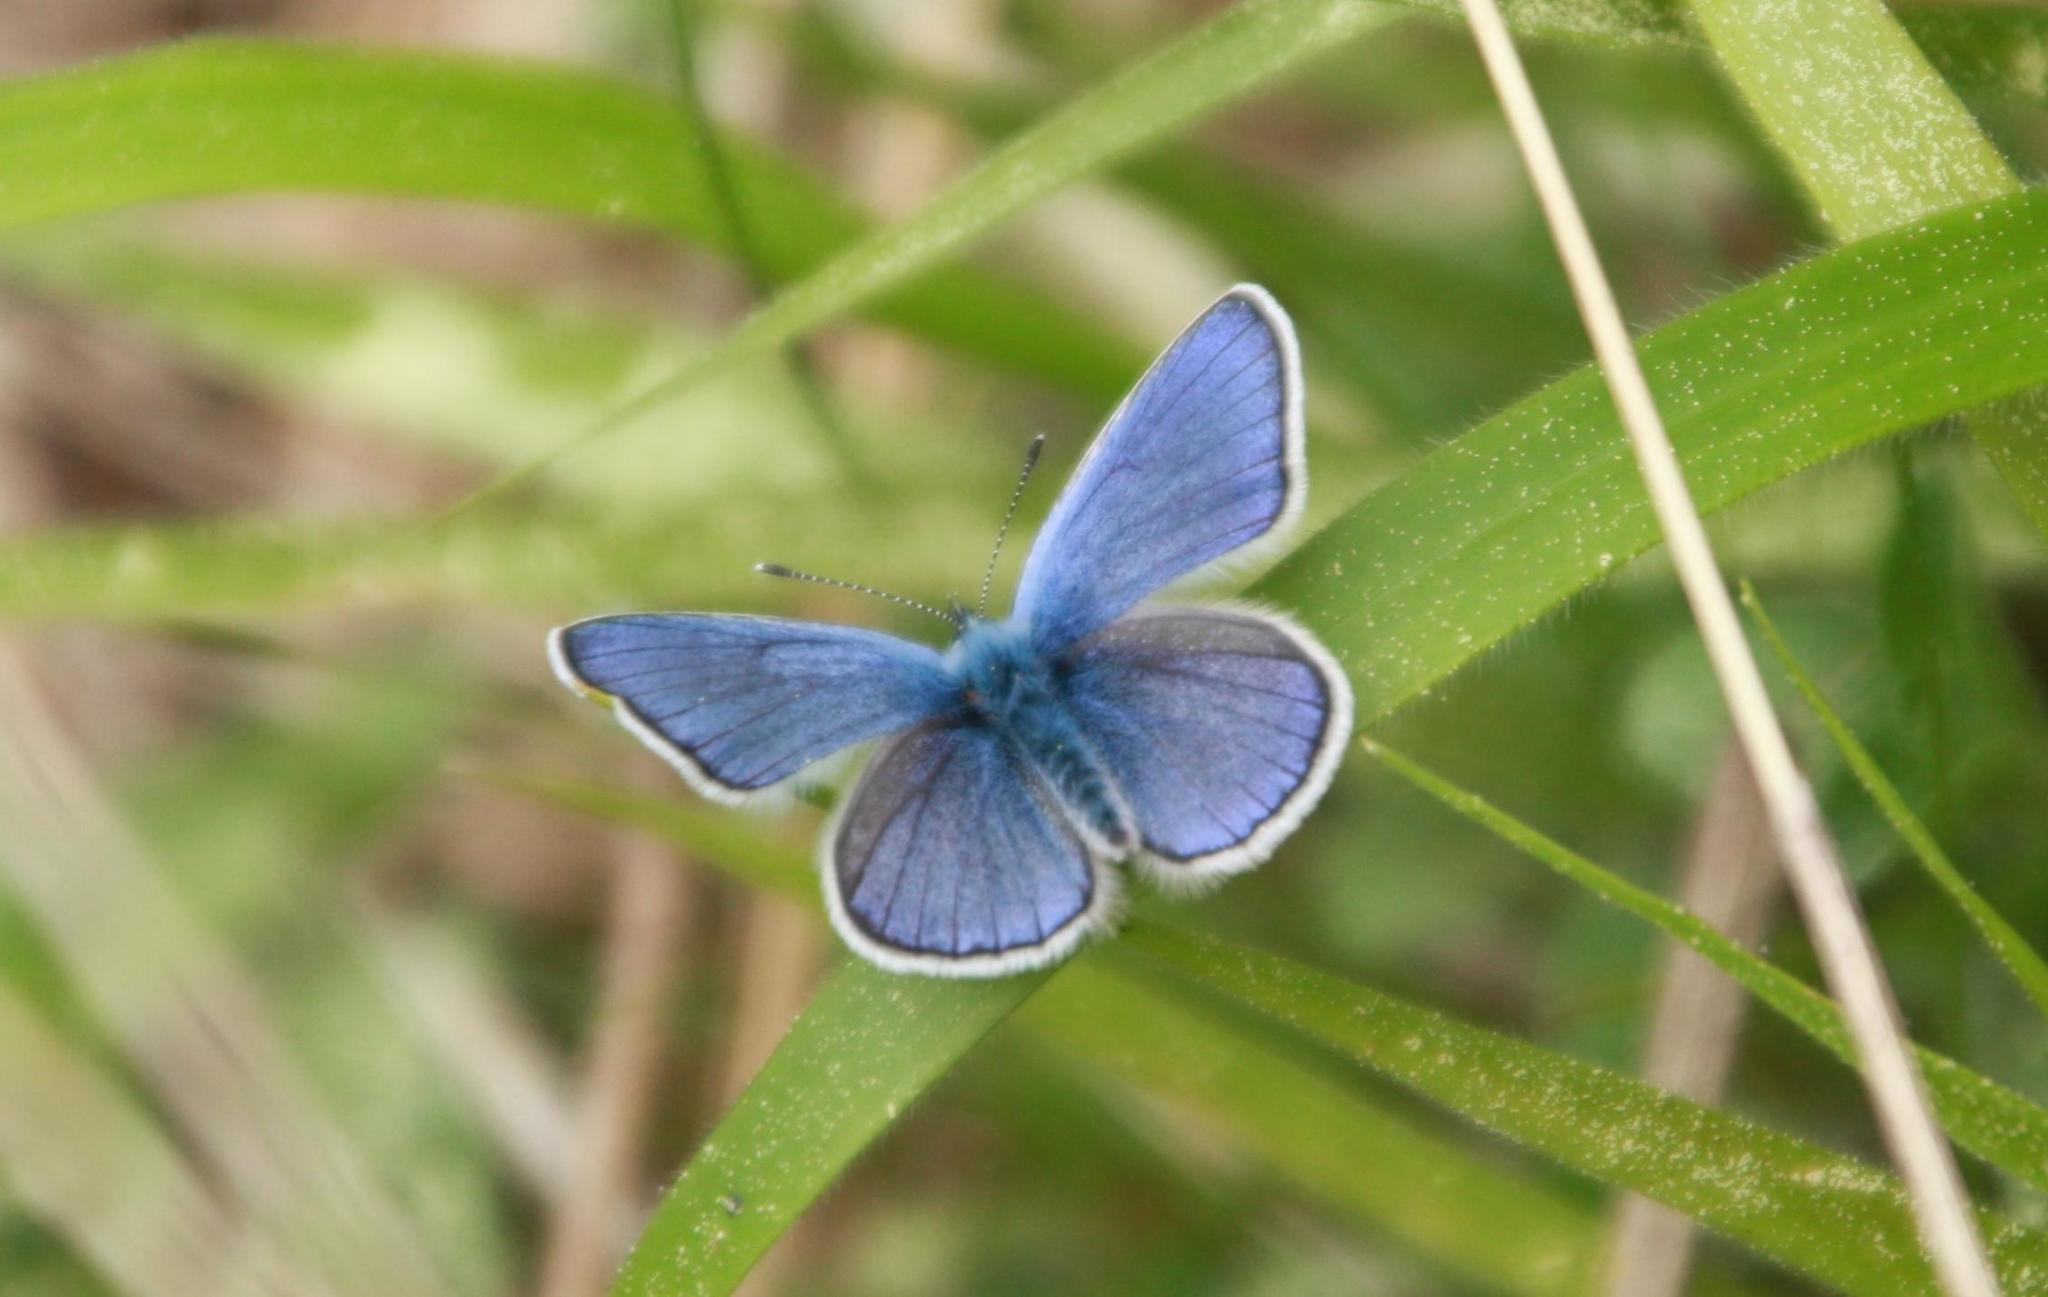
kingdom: Animalia
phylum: Arthropoda
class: Insecta
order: Lepidoptera
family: Lycaenidae
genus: Cyaniris
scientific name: Cyaniris semiargus
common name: Mazarine blue
